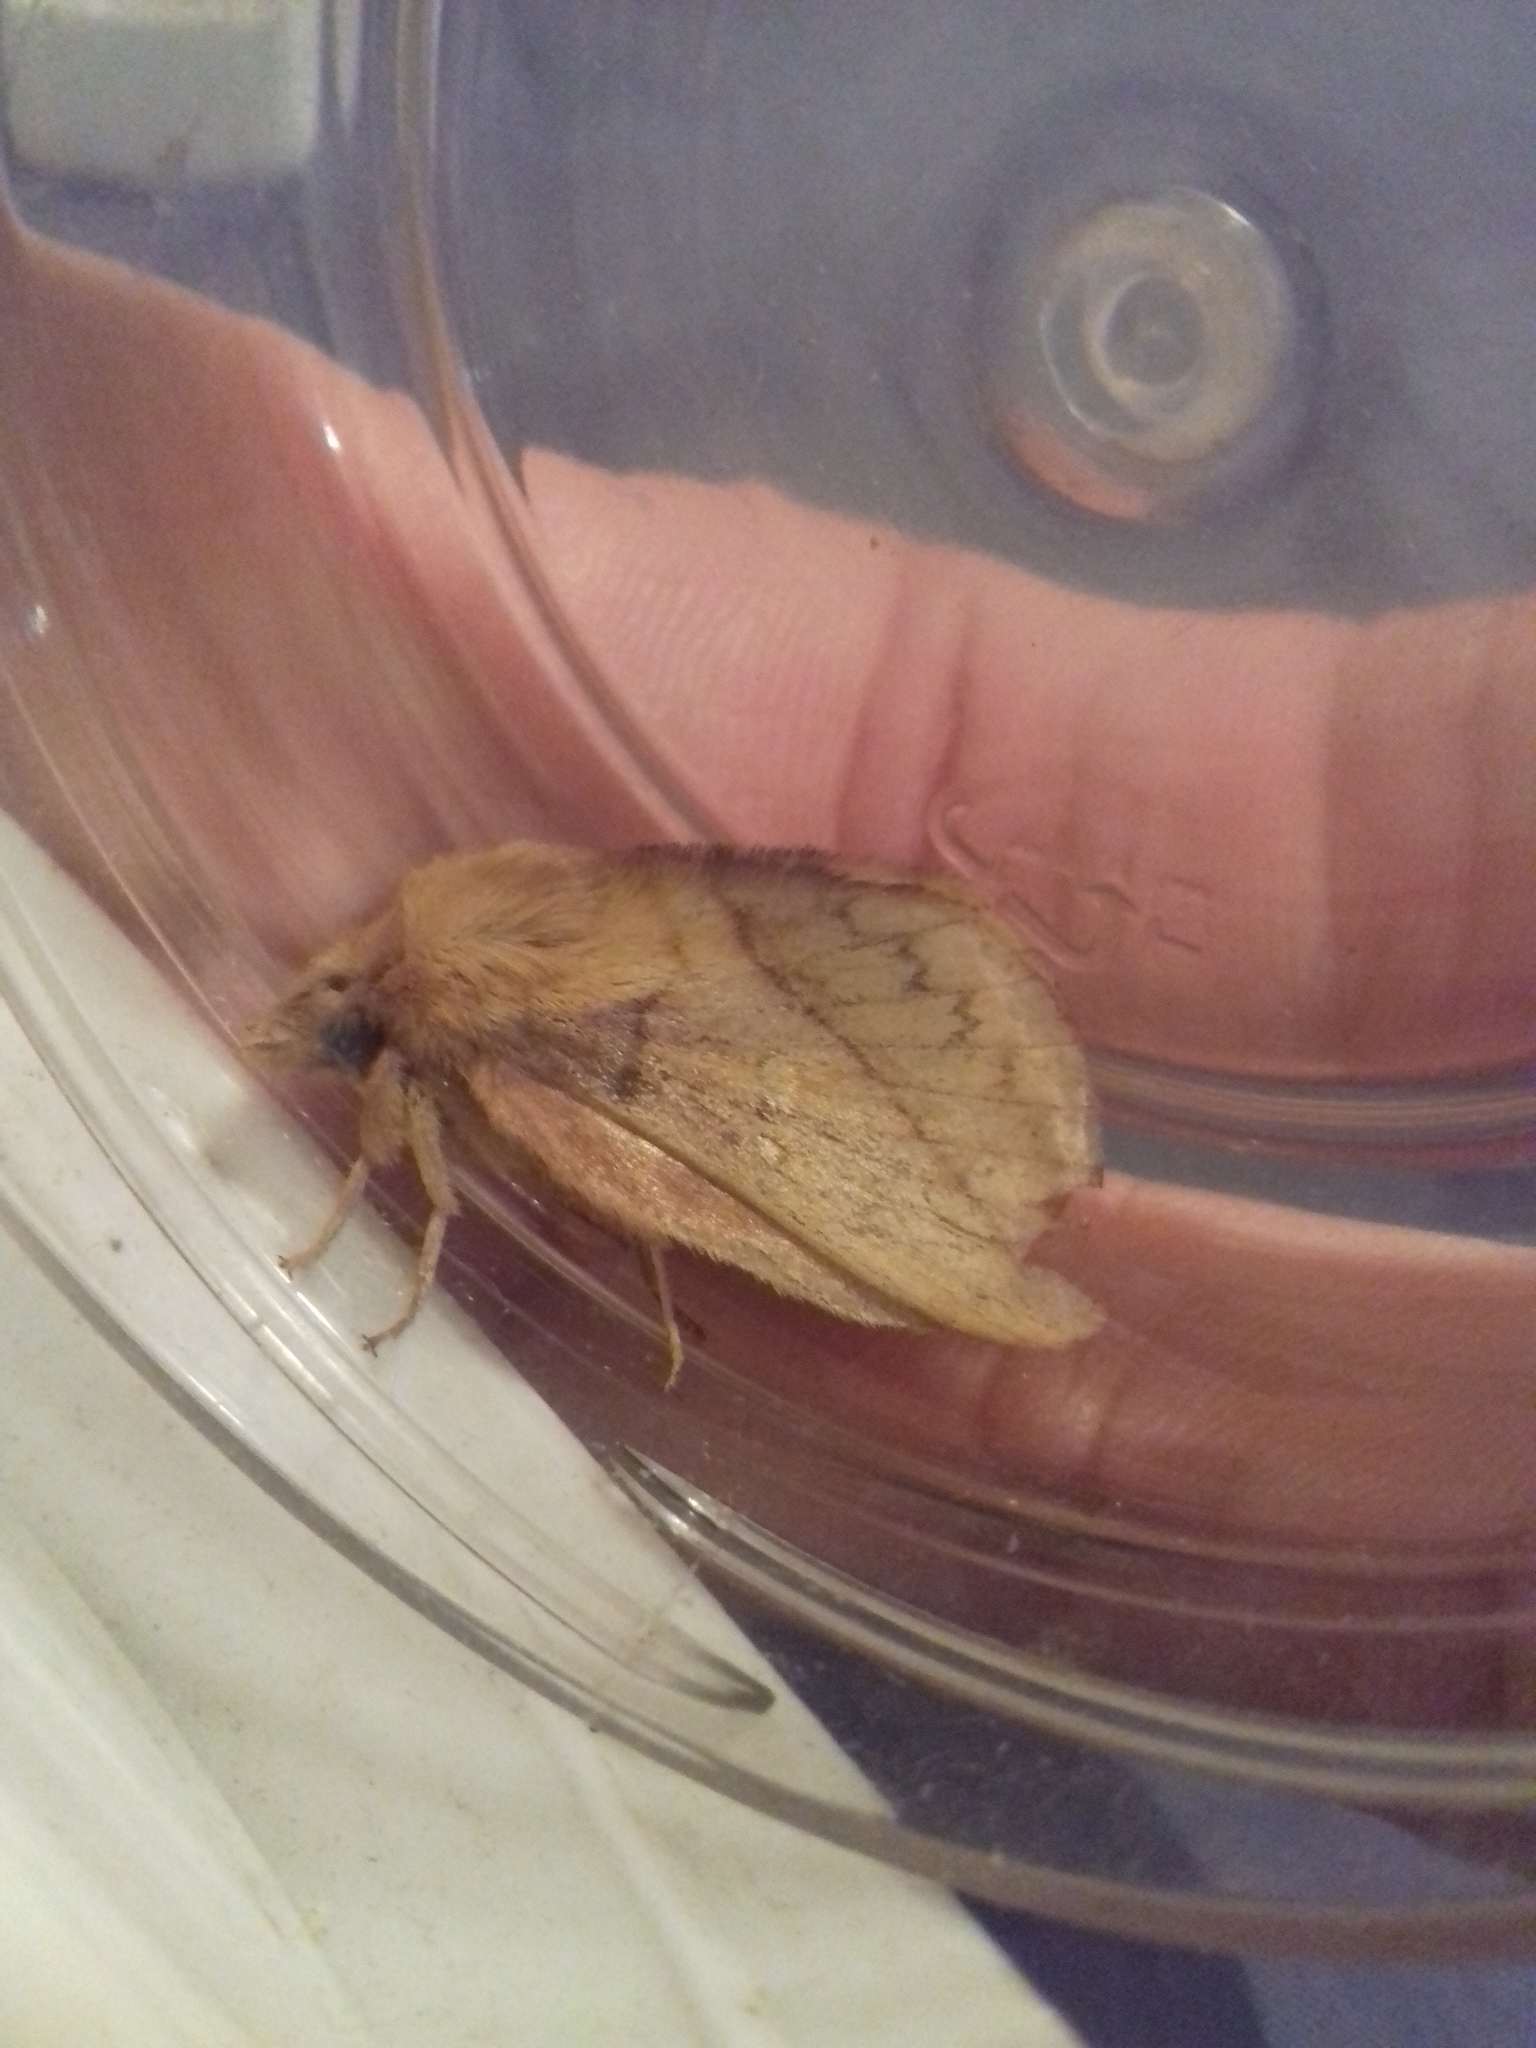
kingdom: Animalia
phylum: Arthropoda
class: Insecta
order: Lepidoptera
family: Lasiocampidae
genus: Euthrix
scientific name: Euthrix potatoria
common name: Drinker
